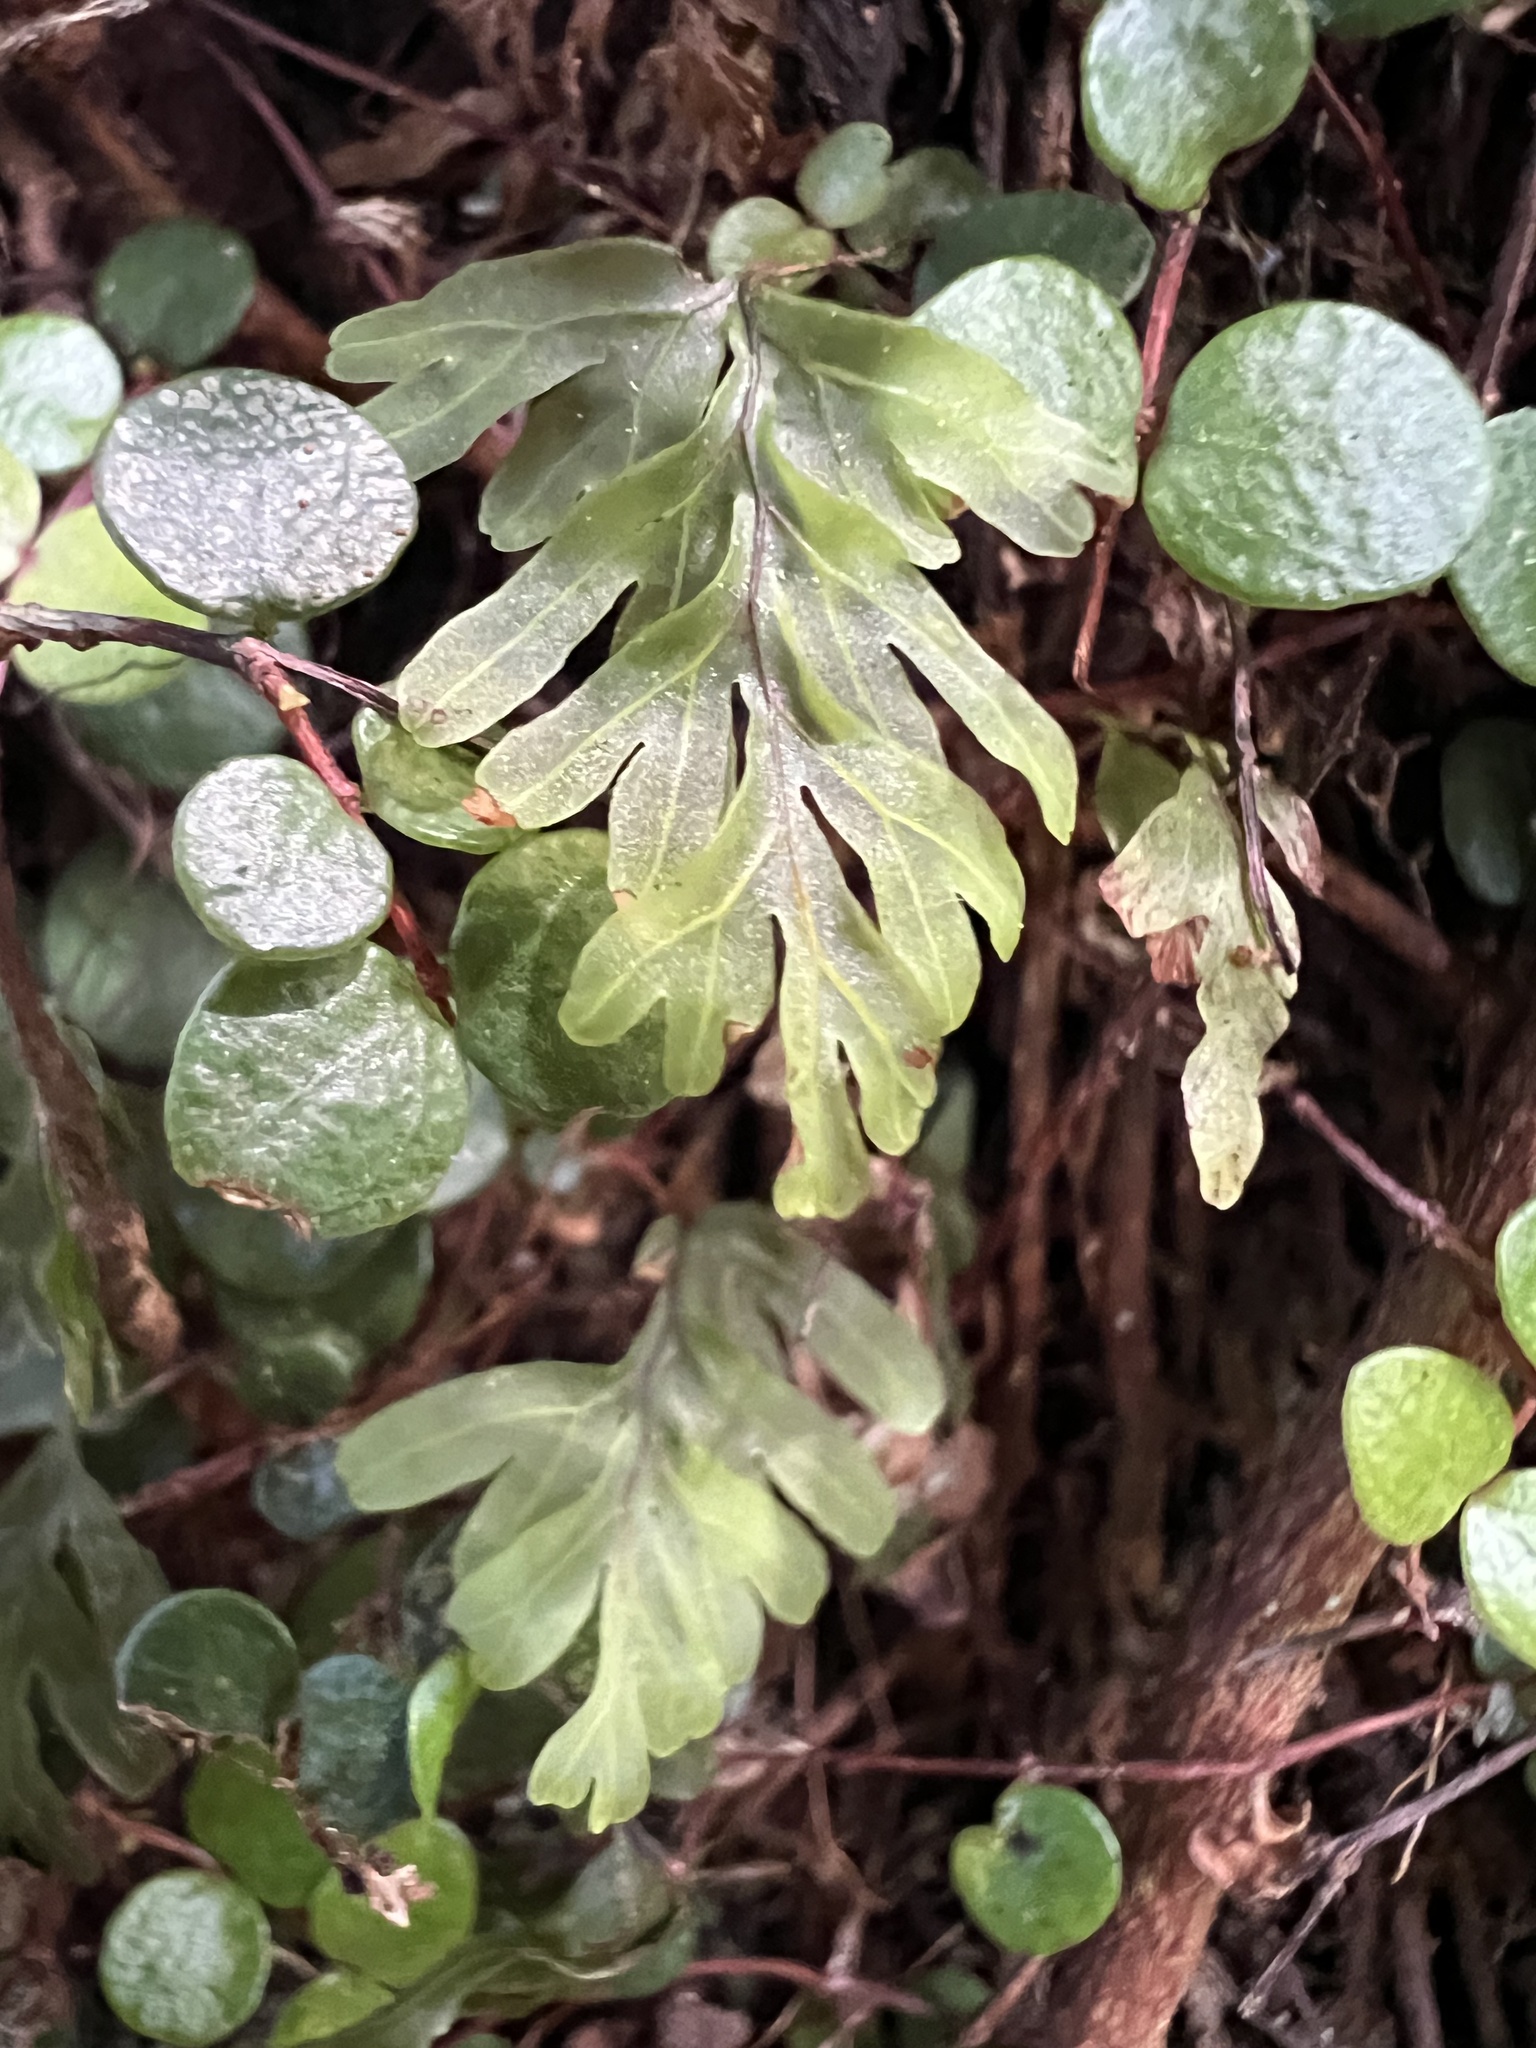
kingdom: Plantae
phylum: Tracheophyta
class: Polypodiopsida
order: Hymenophyllales
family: Hymenophyllaceae
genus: Hymenophyllum
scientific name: Hymenophyllum rarum
